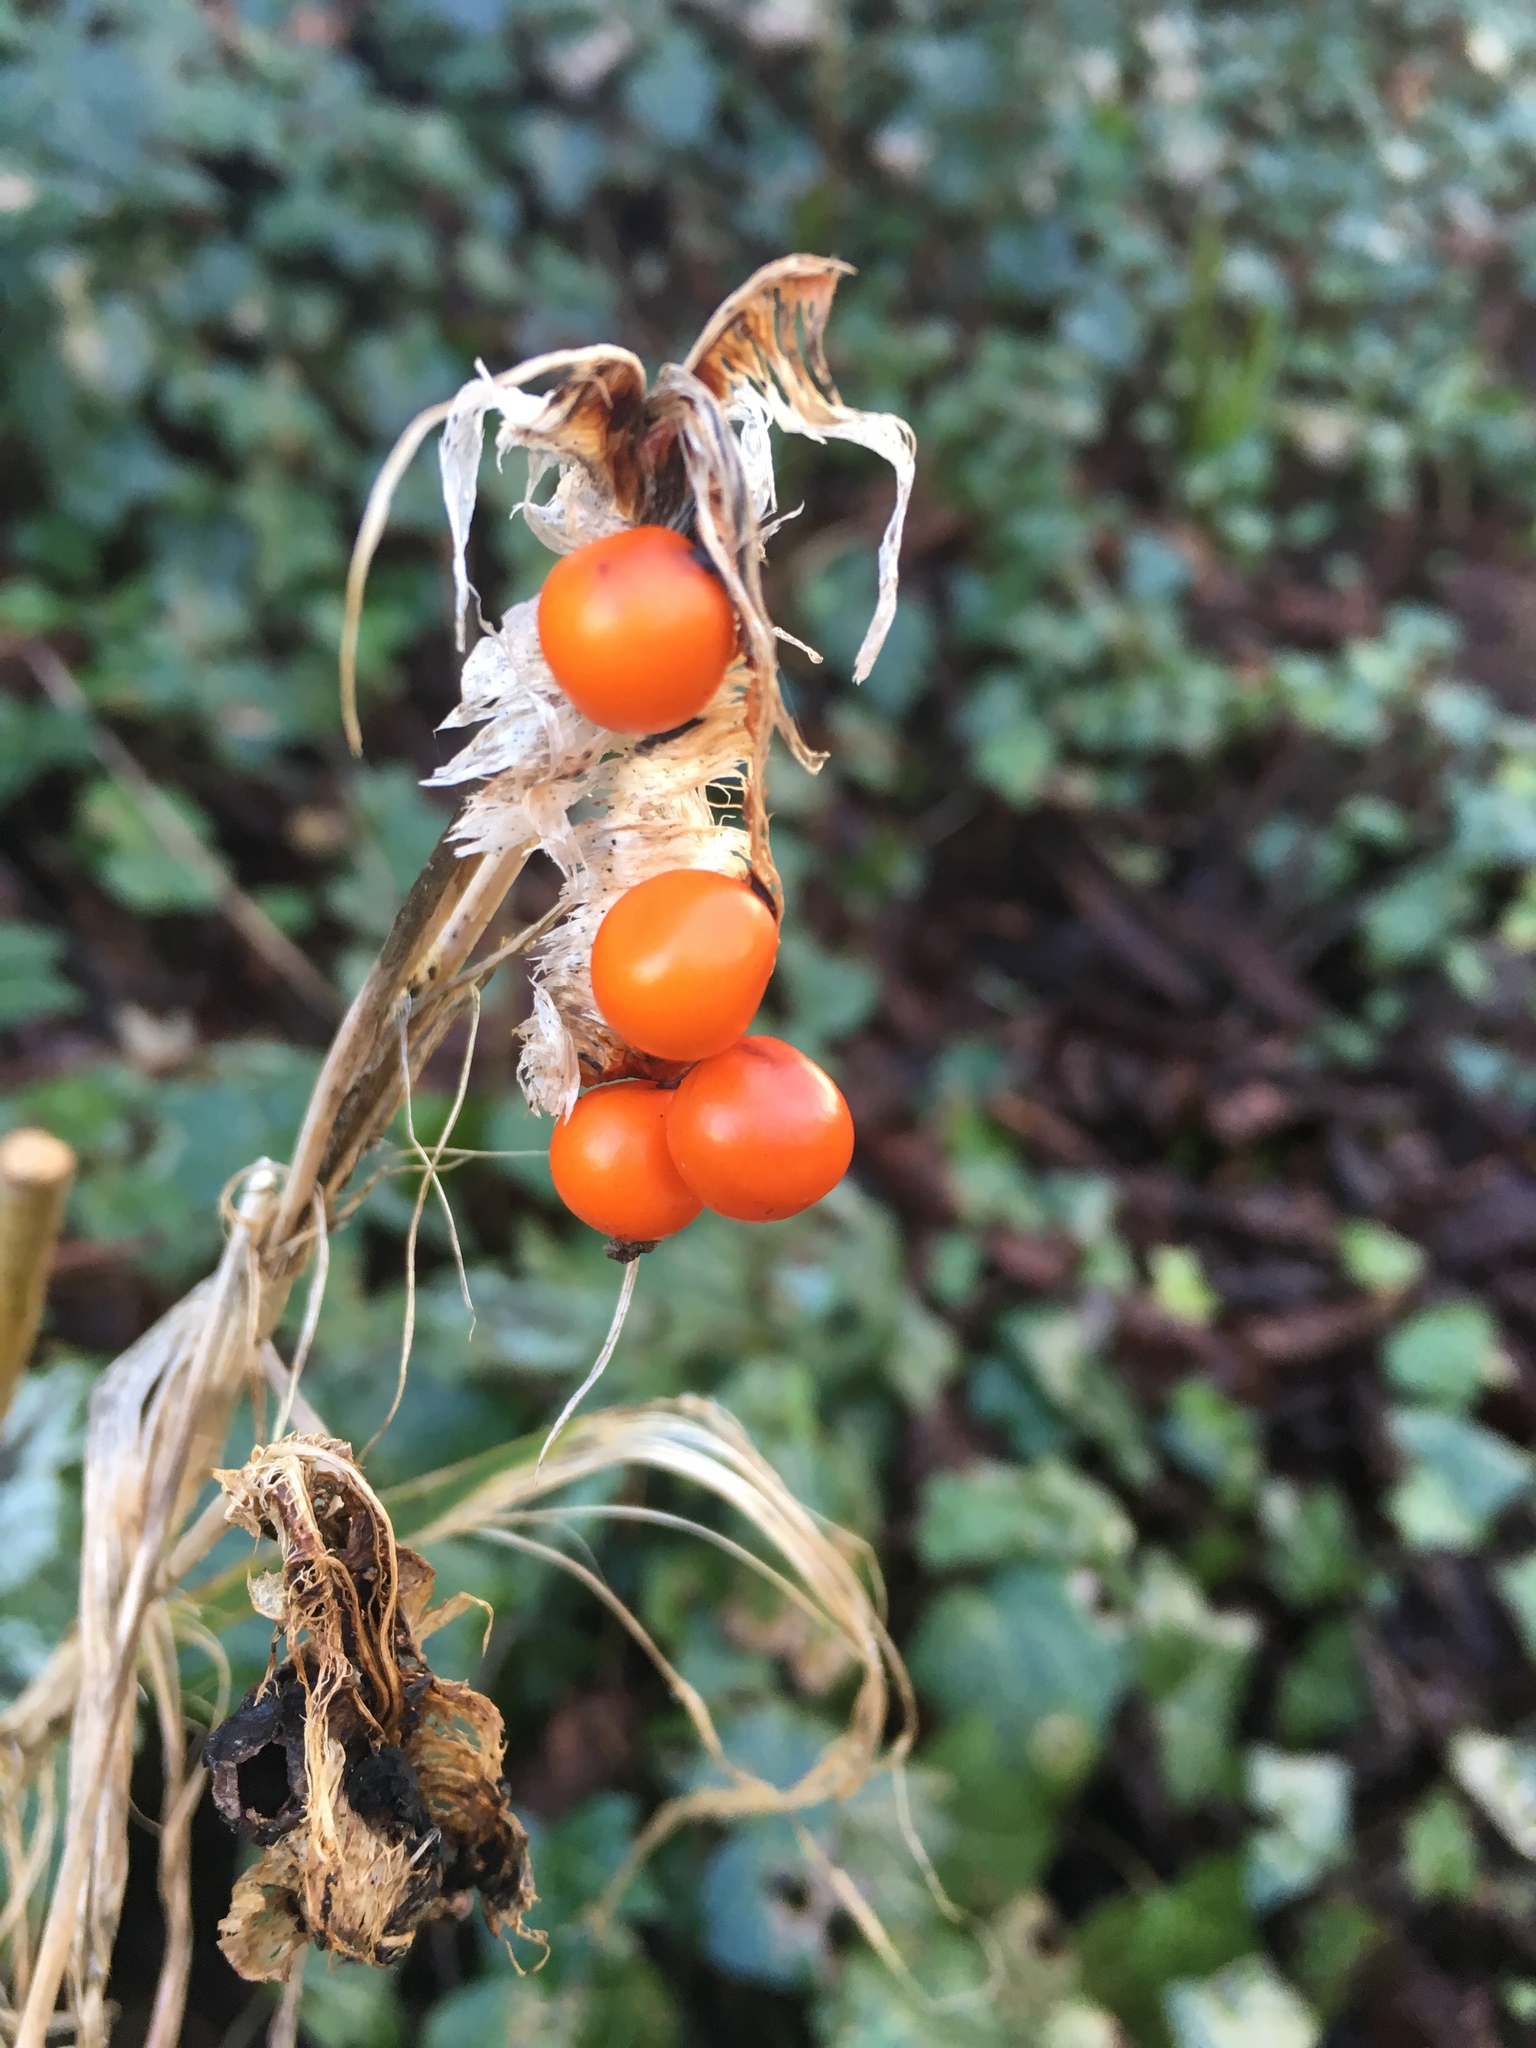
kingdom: Plantae
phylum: Tracheophyta
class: Liliopsida
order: Asparagales
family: Iridaceae
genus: Iris
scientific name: Iris foetidissima
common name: Stinking iris
